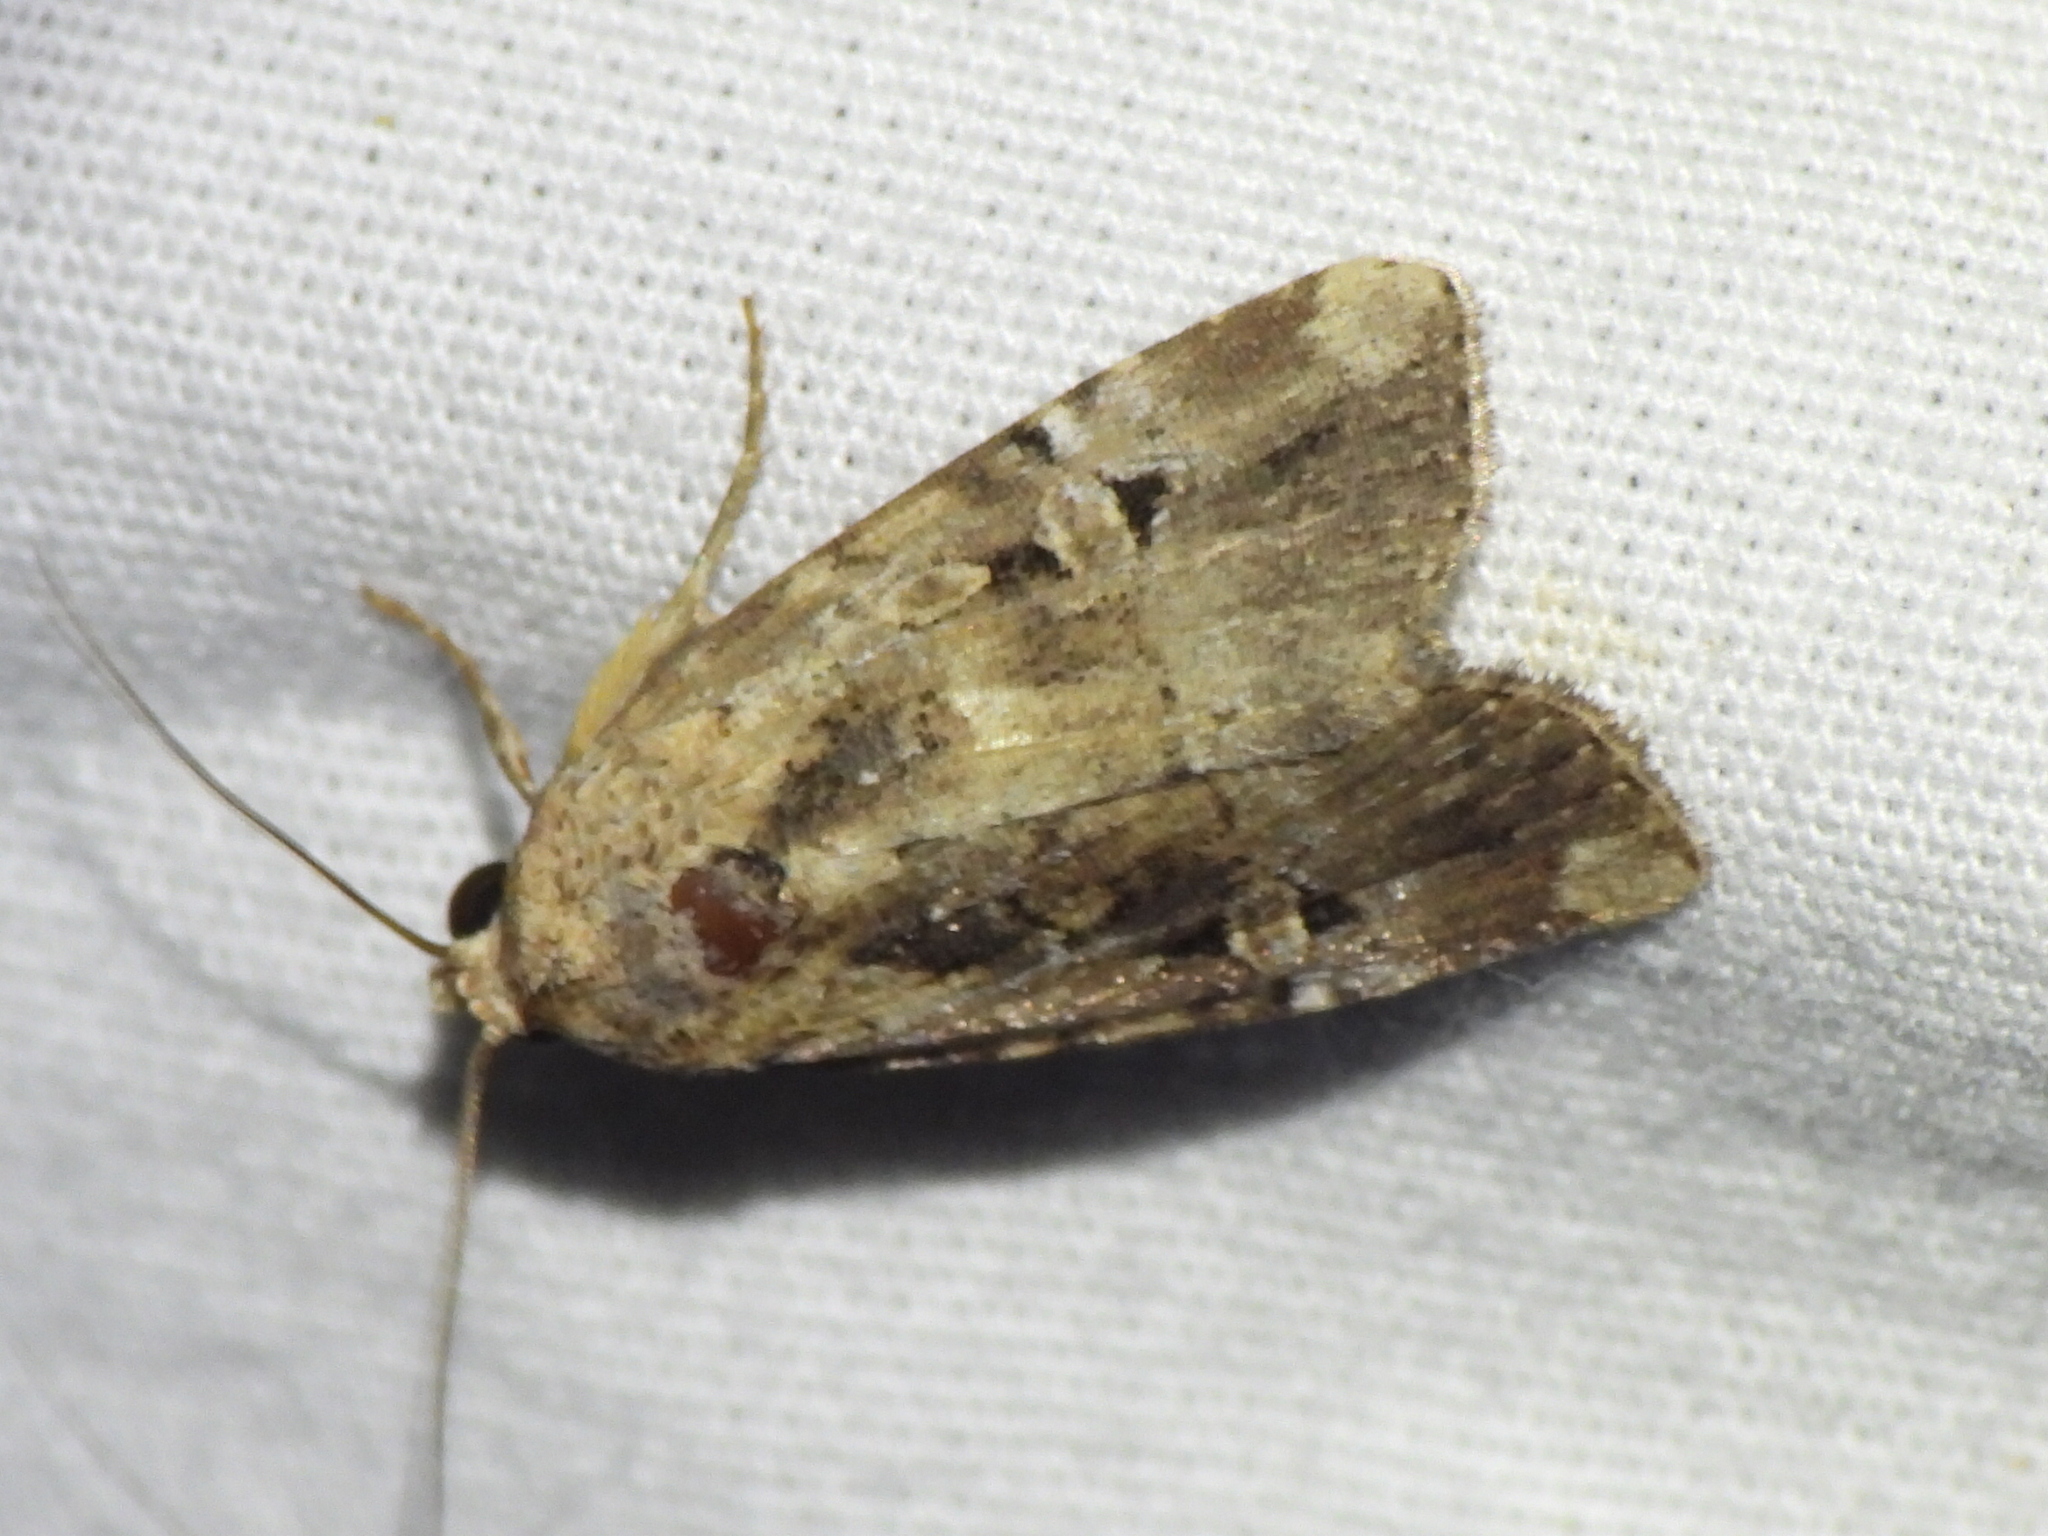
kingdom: Animalia
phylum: Arthropoda
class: Insecta
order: Lepidoptera
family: Noctuidae
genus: Elaphria
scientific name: Elaphria chalcedonia
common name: Chalcedony midget
